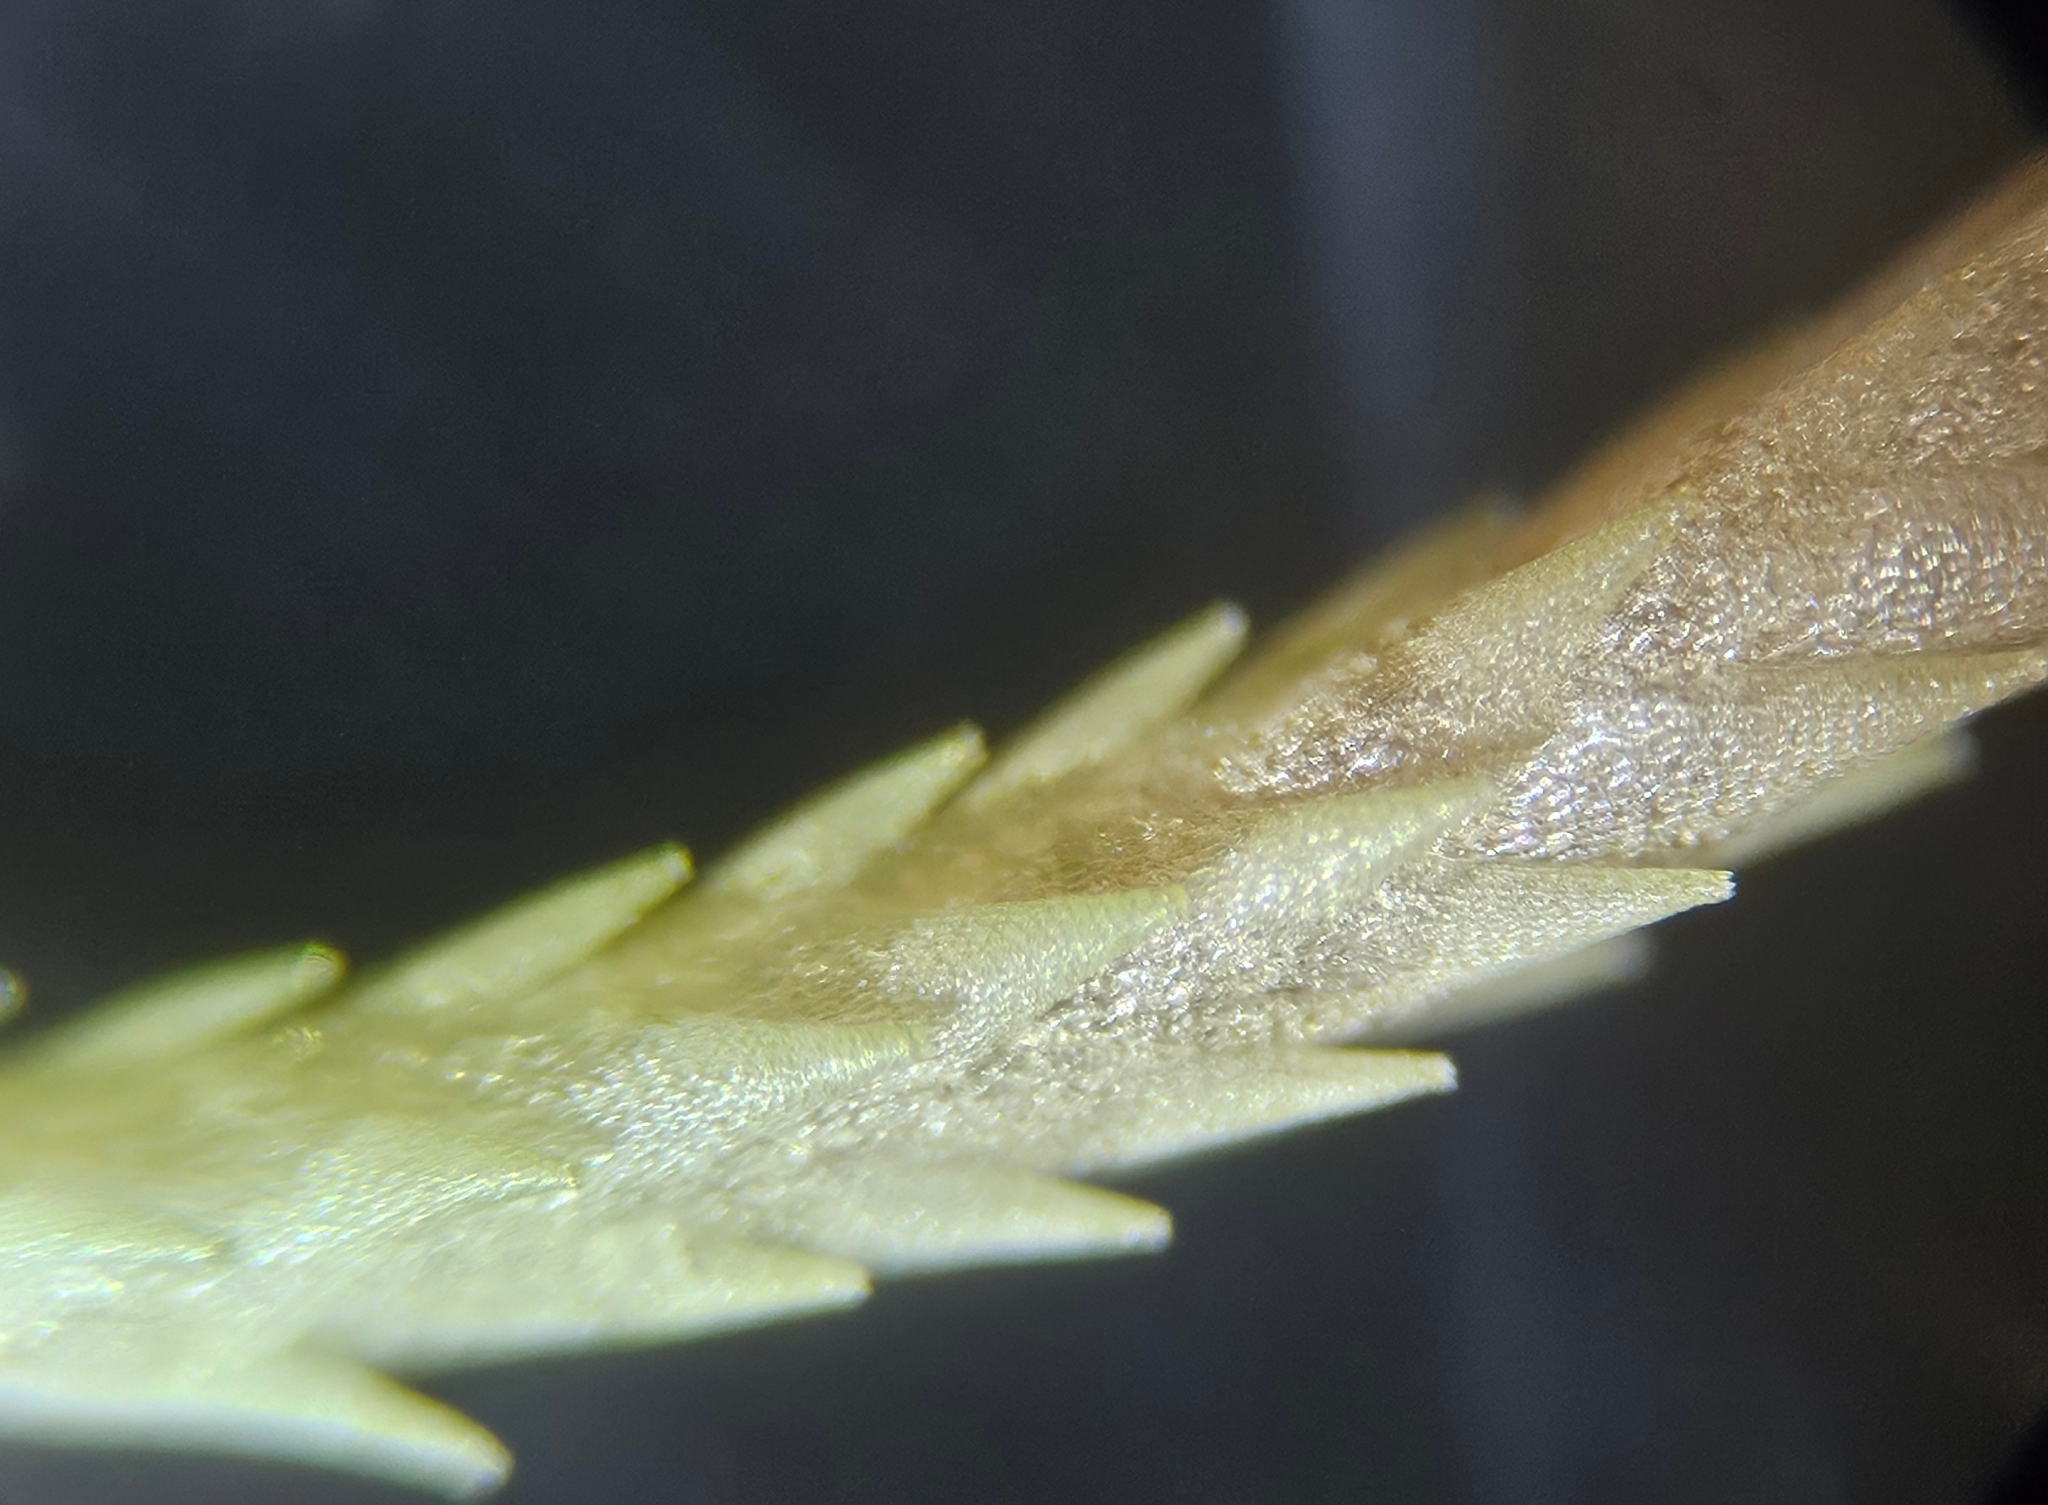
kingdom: Plantae
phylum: Bryophyta
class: Sphagnopsida
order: Sphagnales
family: Sphagnaceae
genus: Sphagnum
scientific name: Sphagnum russowii
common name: Russow's peat moss
